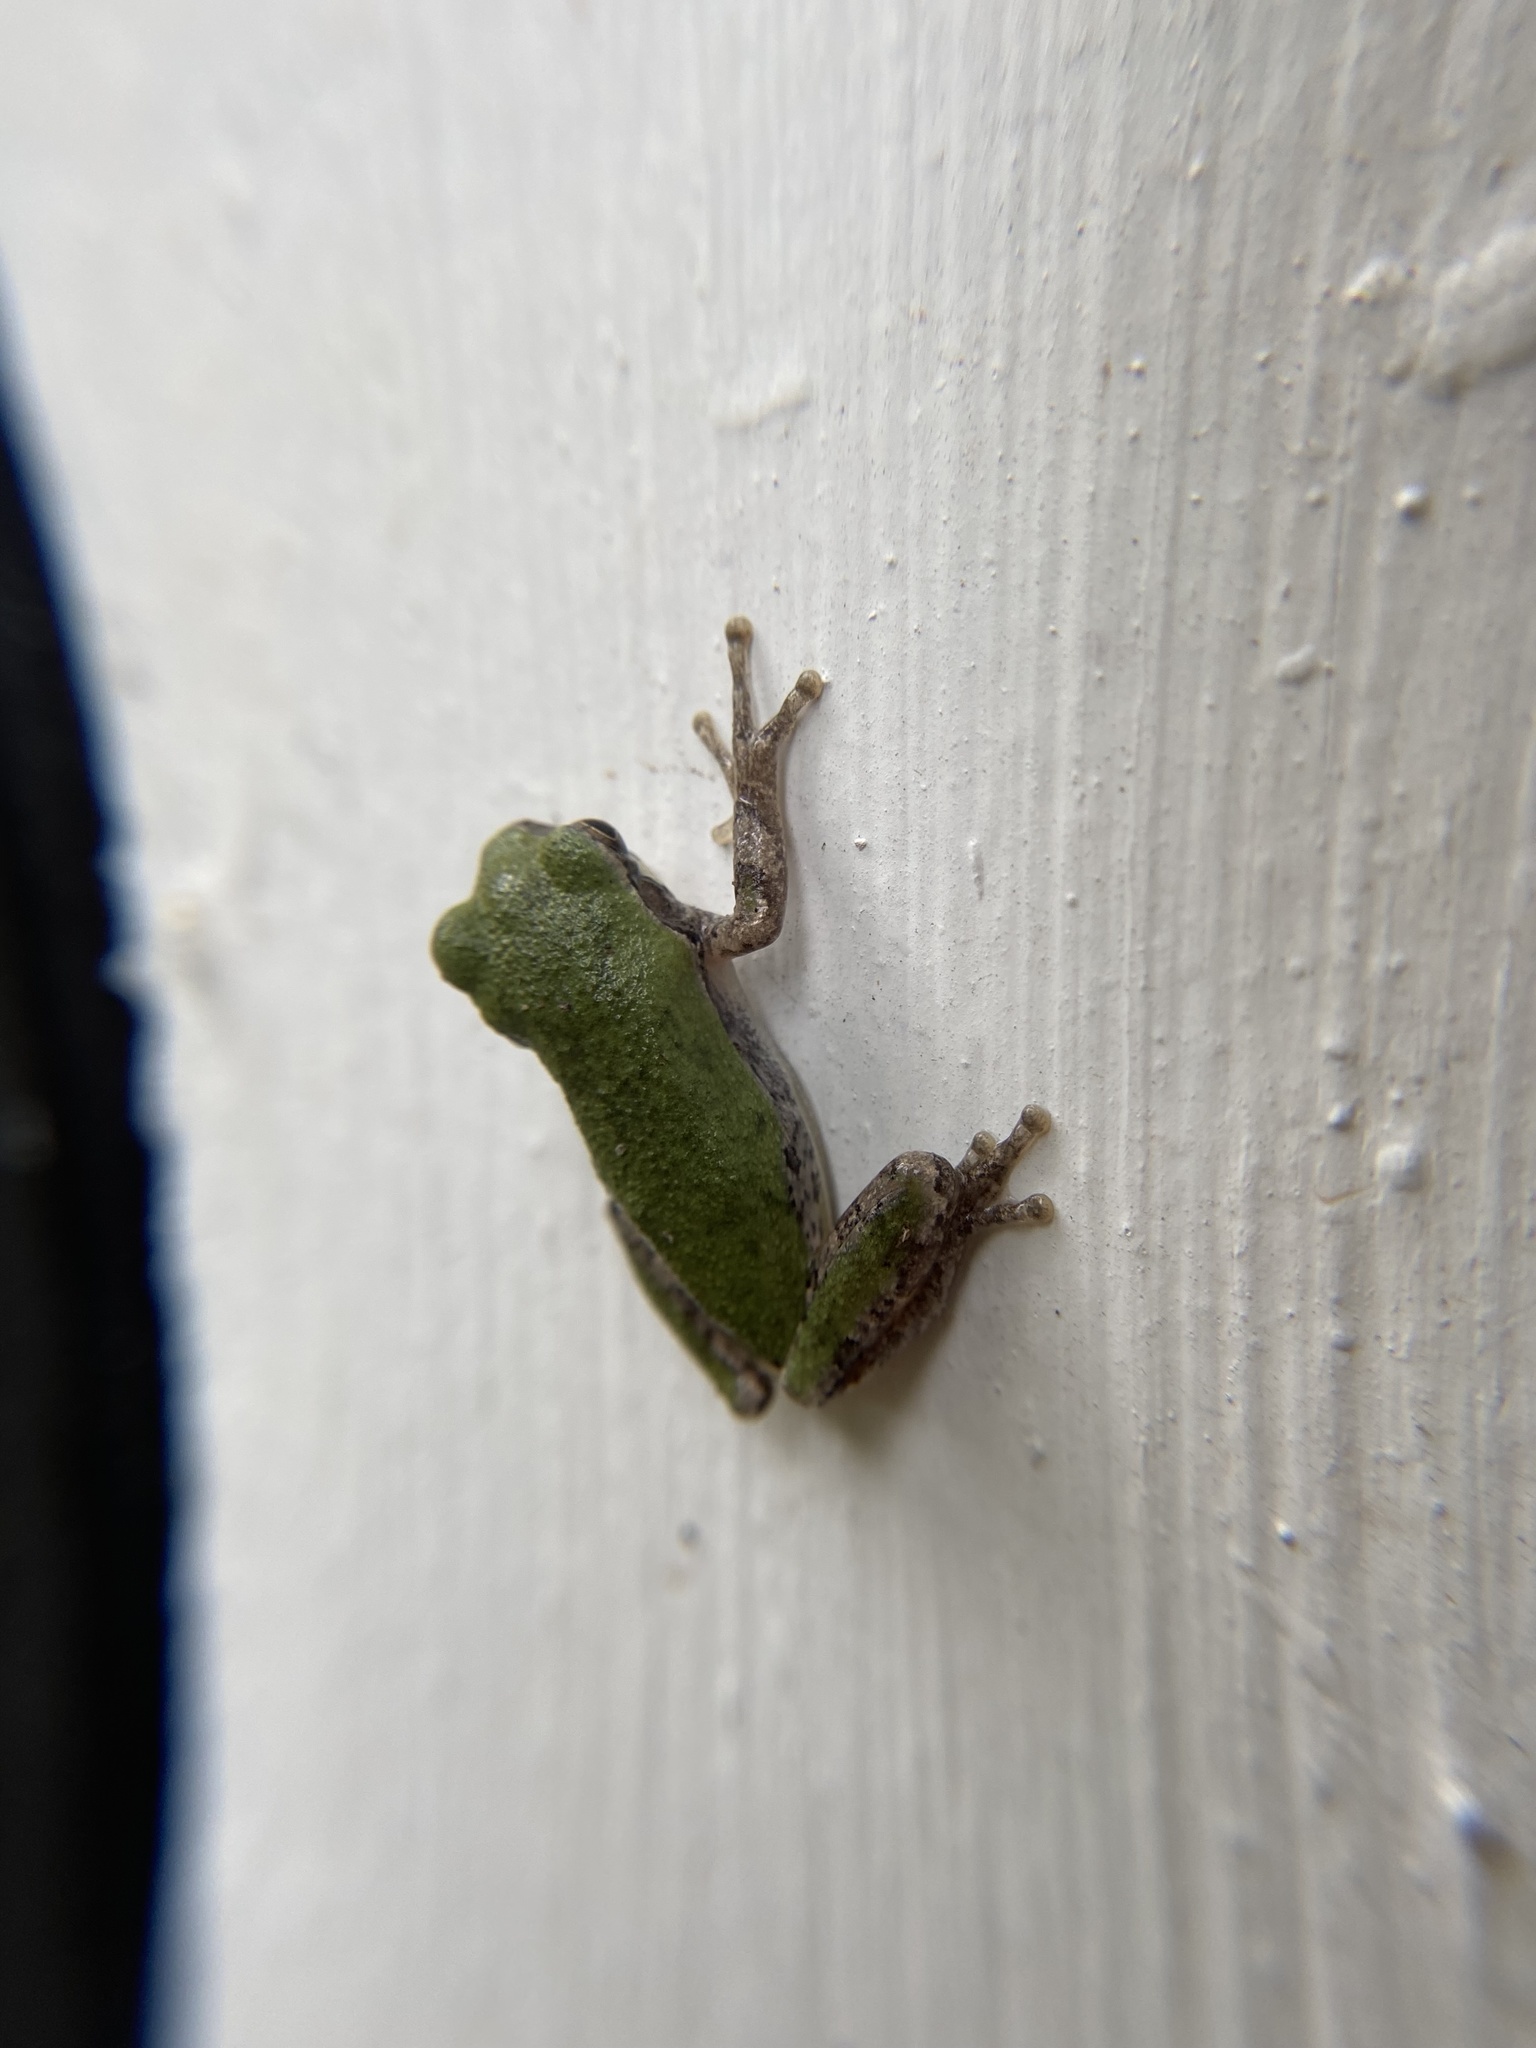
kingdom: Animalia
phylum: Chordata
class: Amphibia
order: Anura
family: Hylidae
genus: Dryophytes
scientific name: Dryophytes versicolor
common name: Gray treefrog
